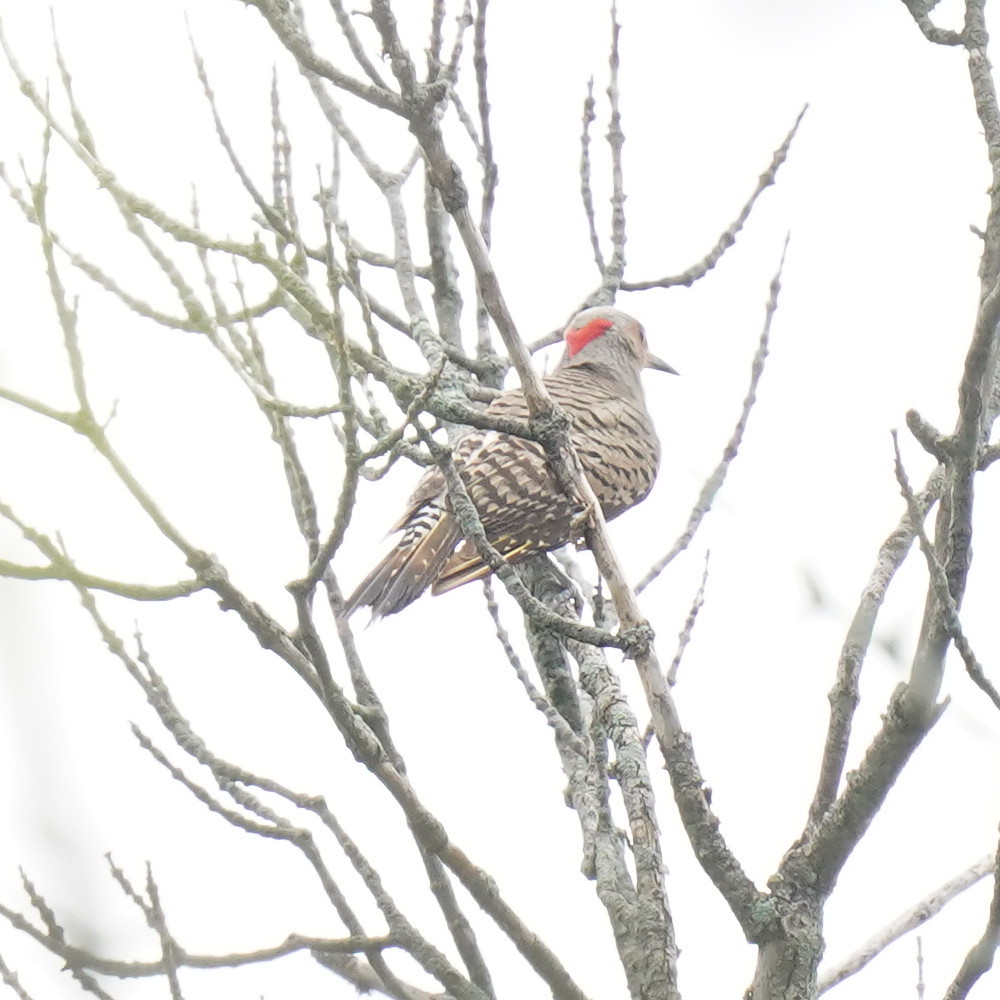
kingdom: Animalia
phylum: Chordata
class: Aves
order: Piciformes
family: Picidae
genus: Colaptes
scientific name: Colaptes auratus
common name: Northern flicker
